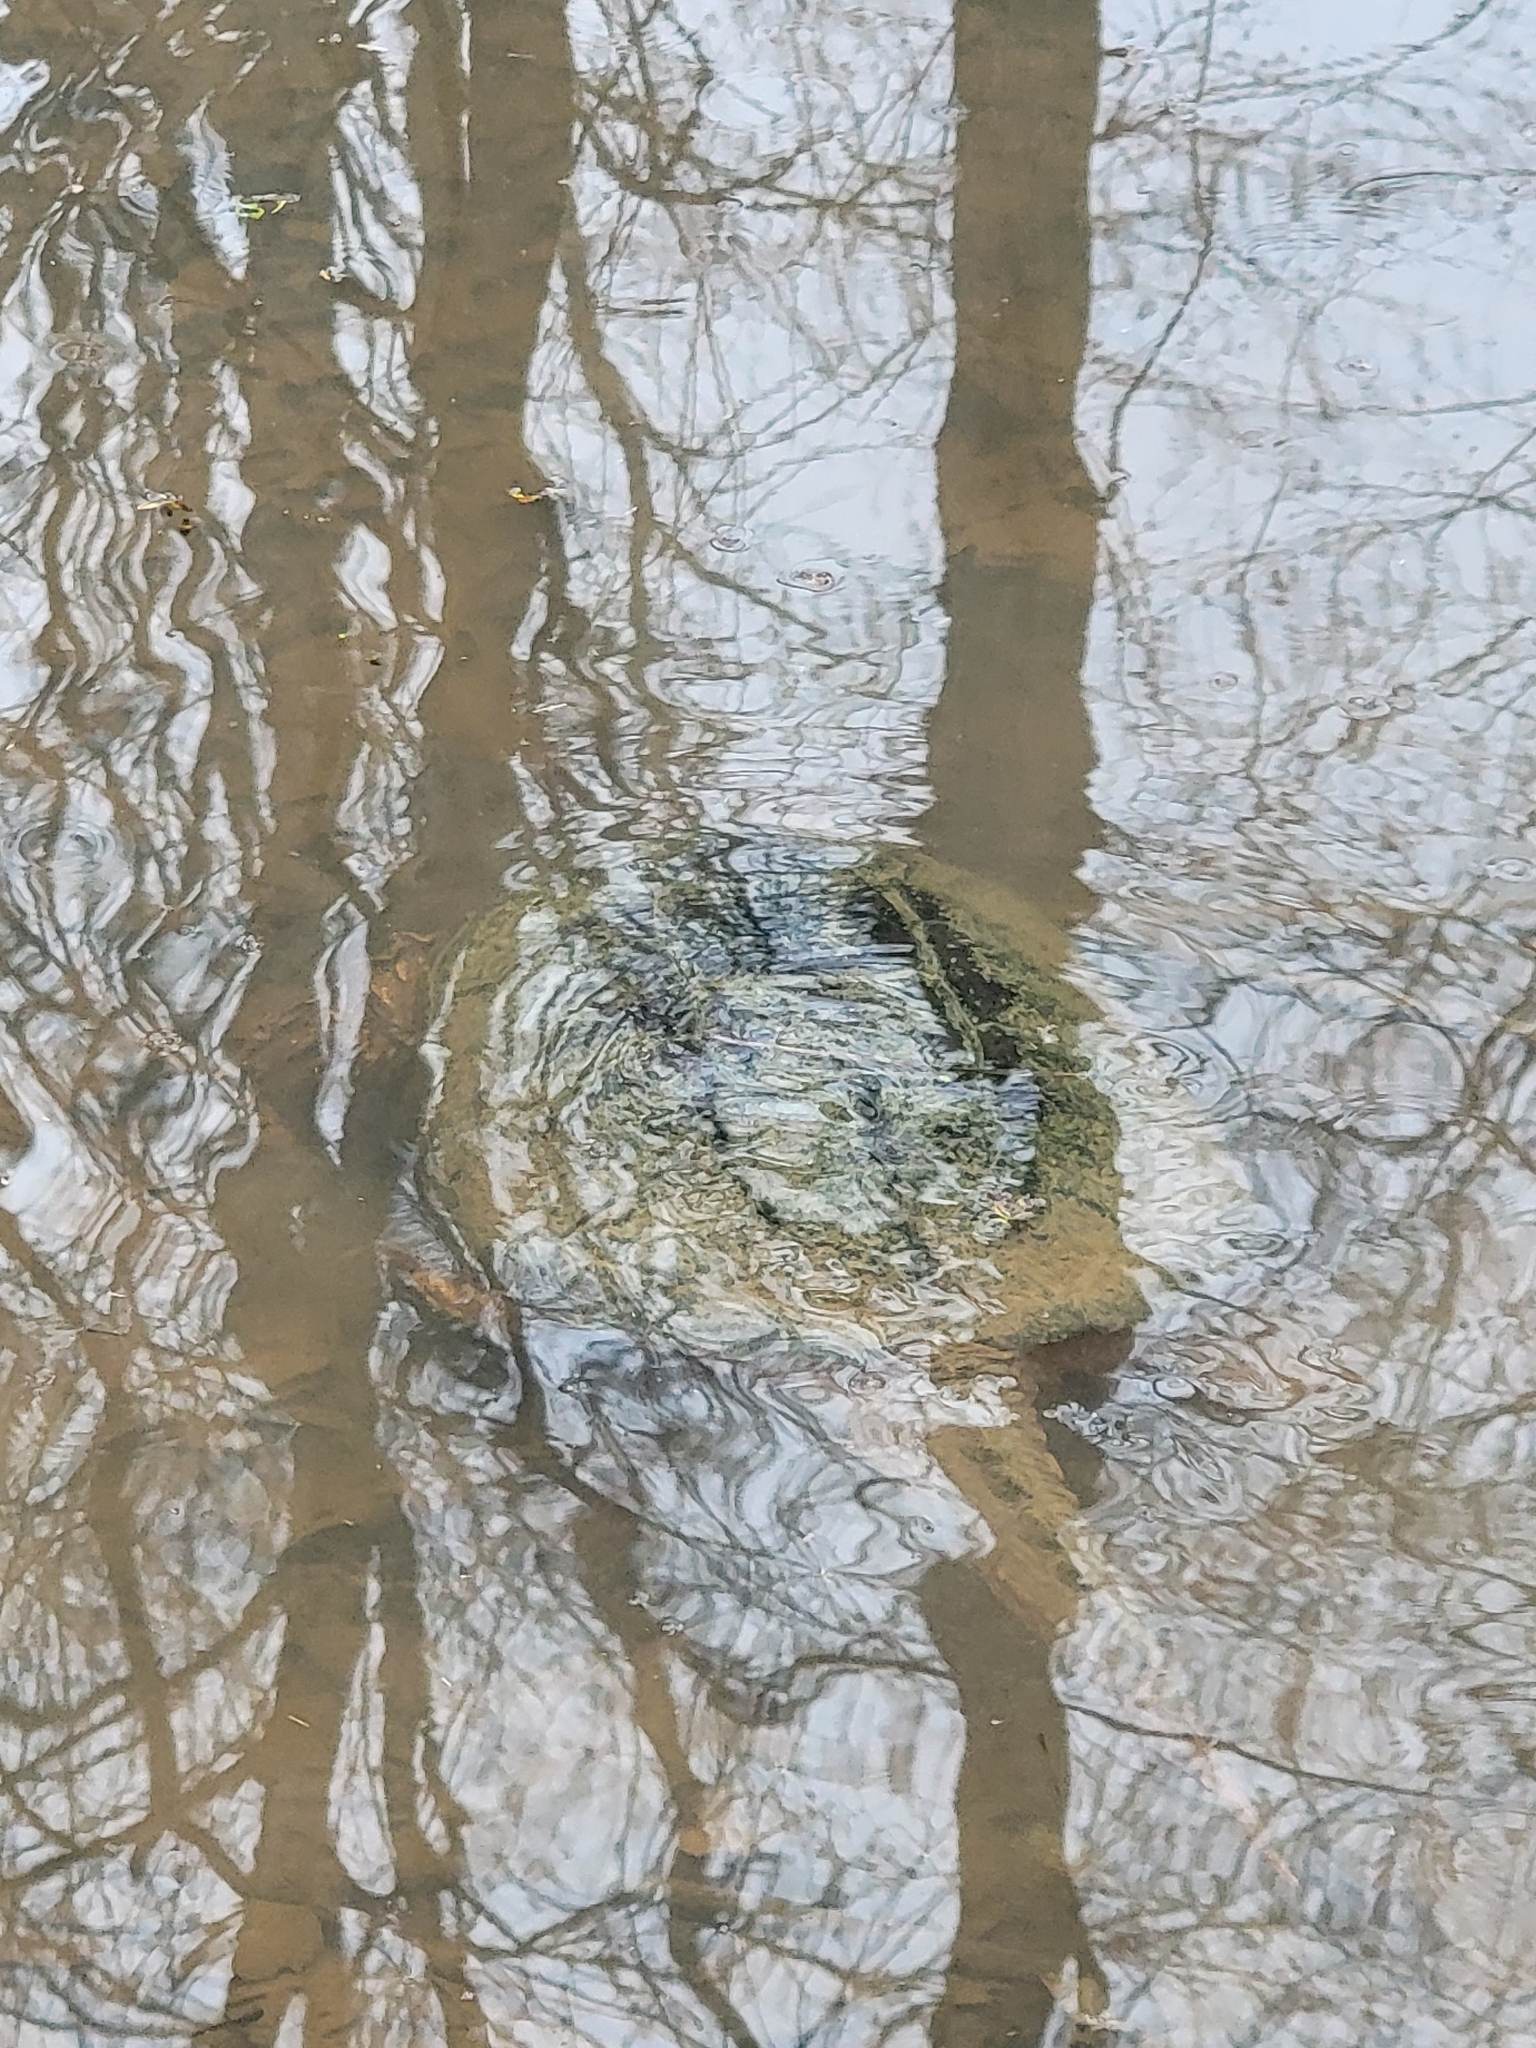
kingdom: Animalia
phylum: Chordata
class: Testudines
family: Chelydridae
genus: Chelydra
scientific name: Chelydra serpentina
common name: Common snapping turtle
